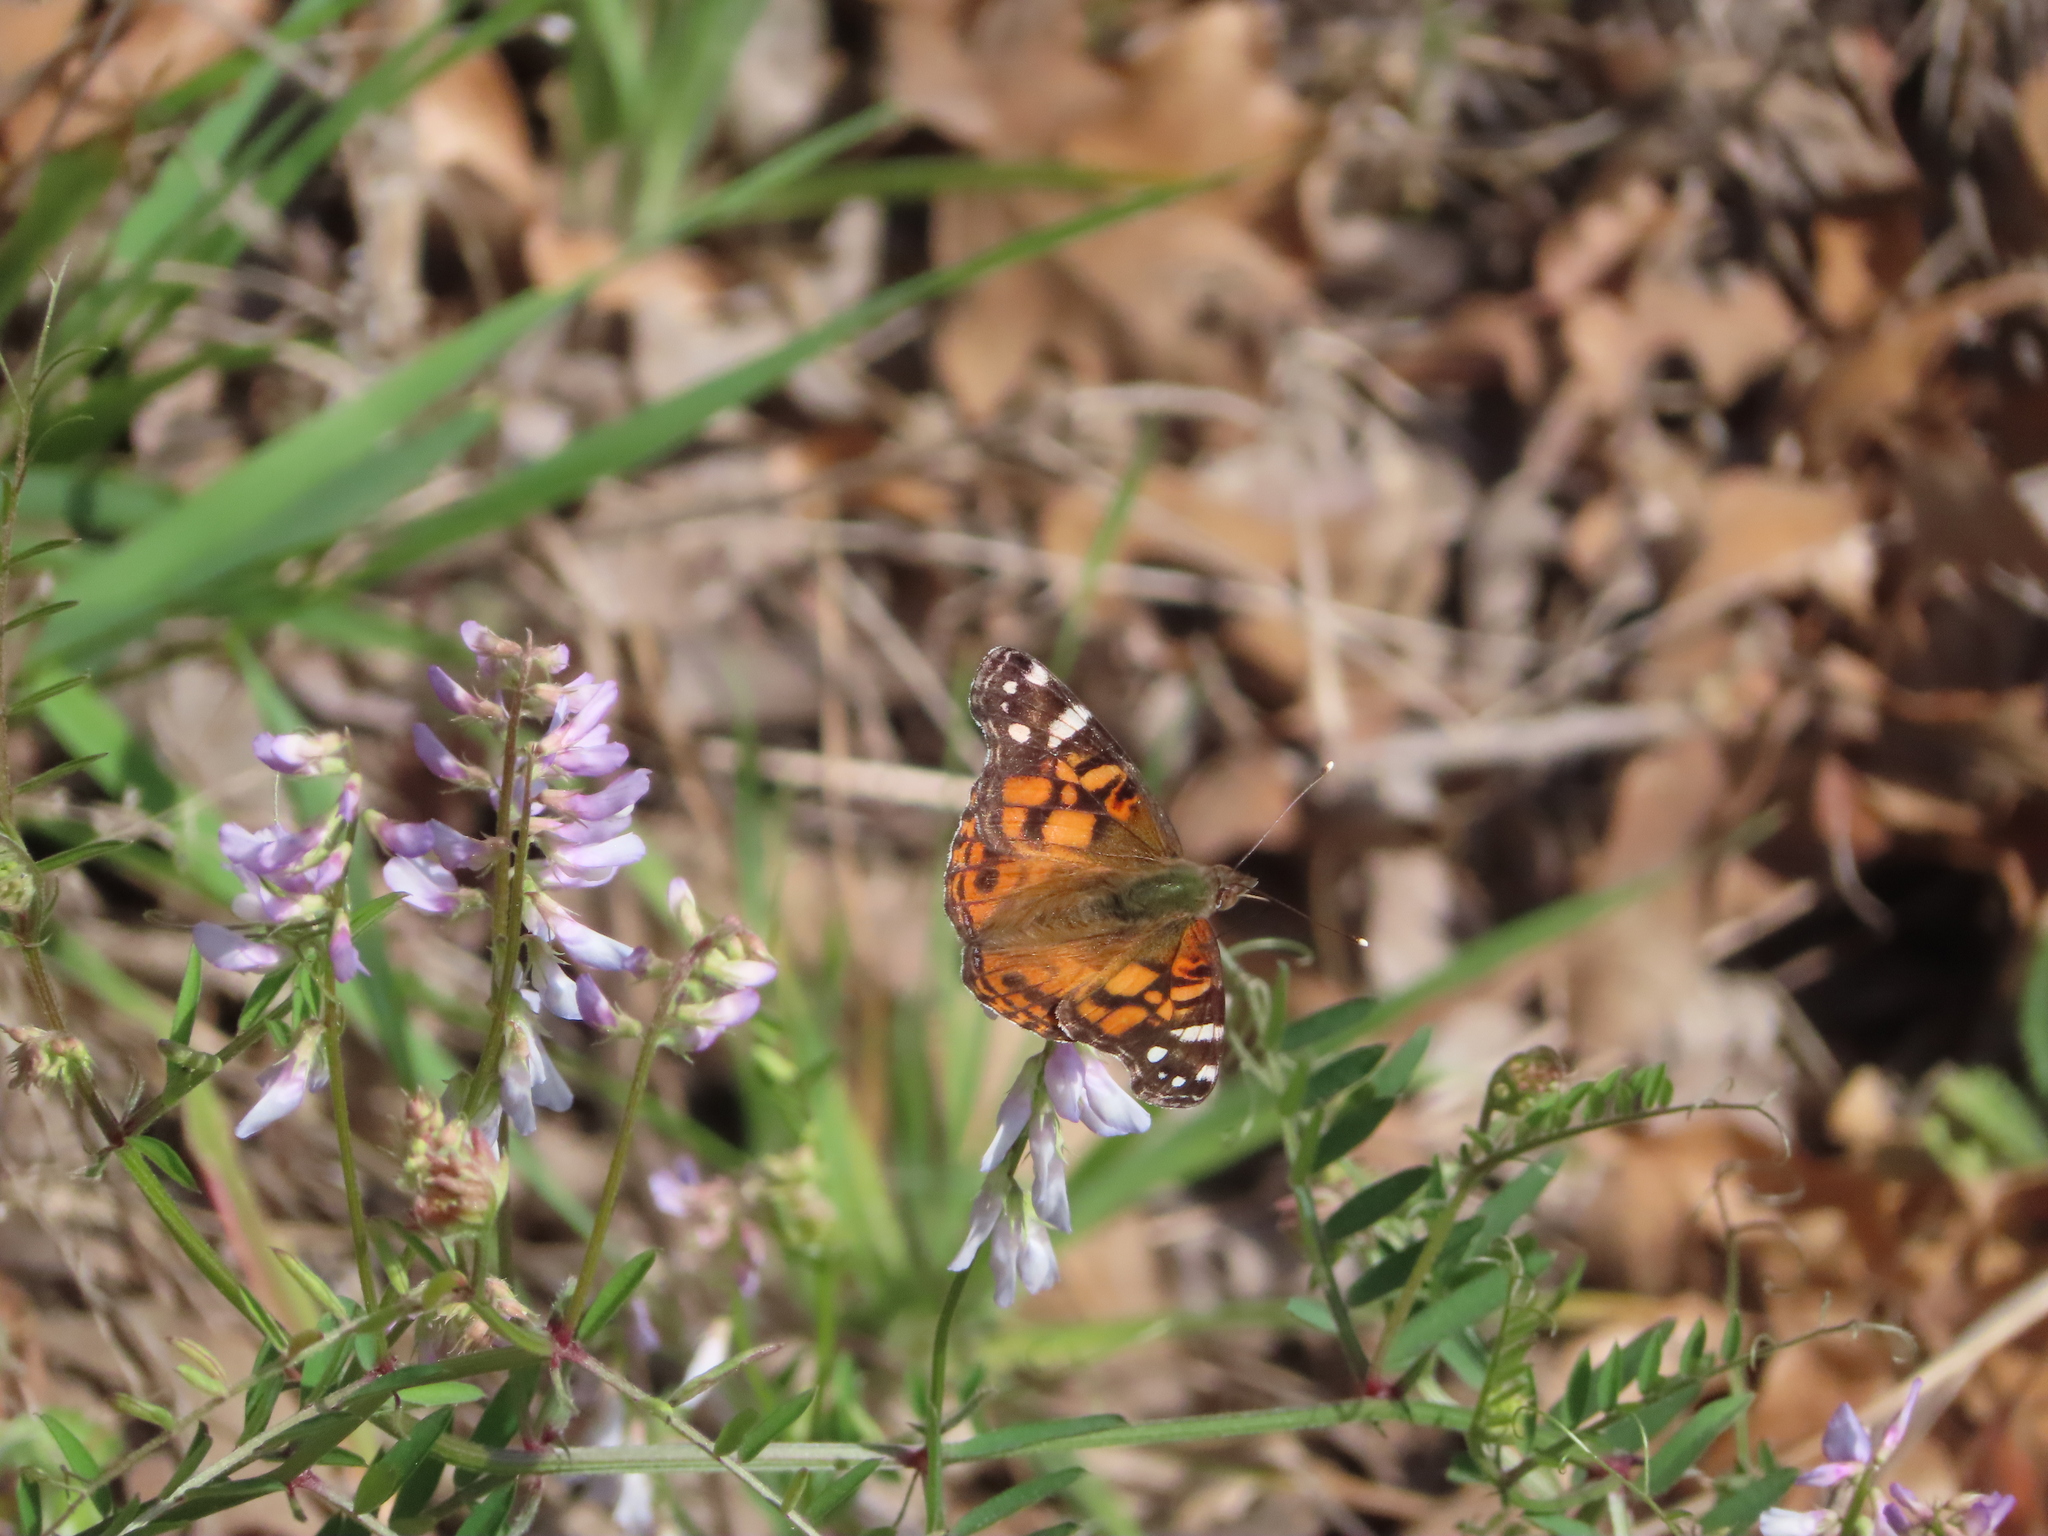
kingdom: Animalia
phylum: Arthropoda
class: Insecta
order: Lepidoptera
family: Nymphalidae
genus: Vanessa
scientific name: Vanessa virginiensis
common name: American lady
